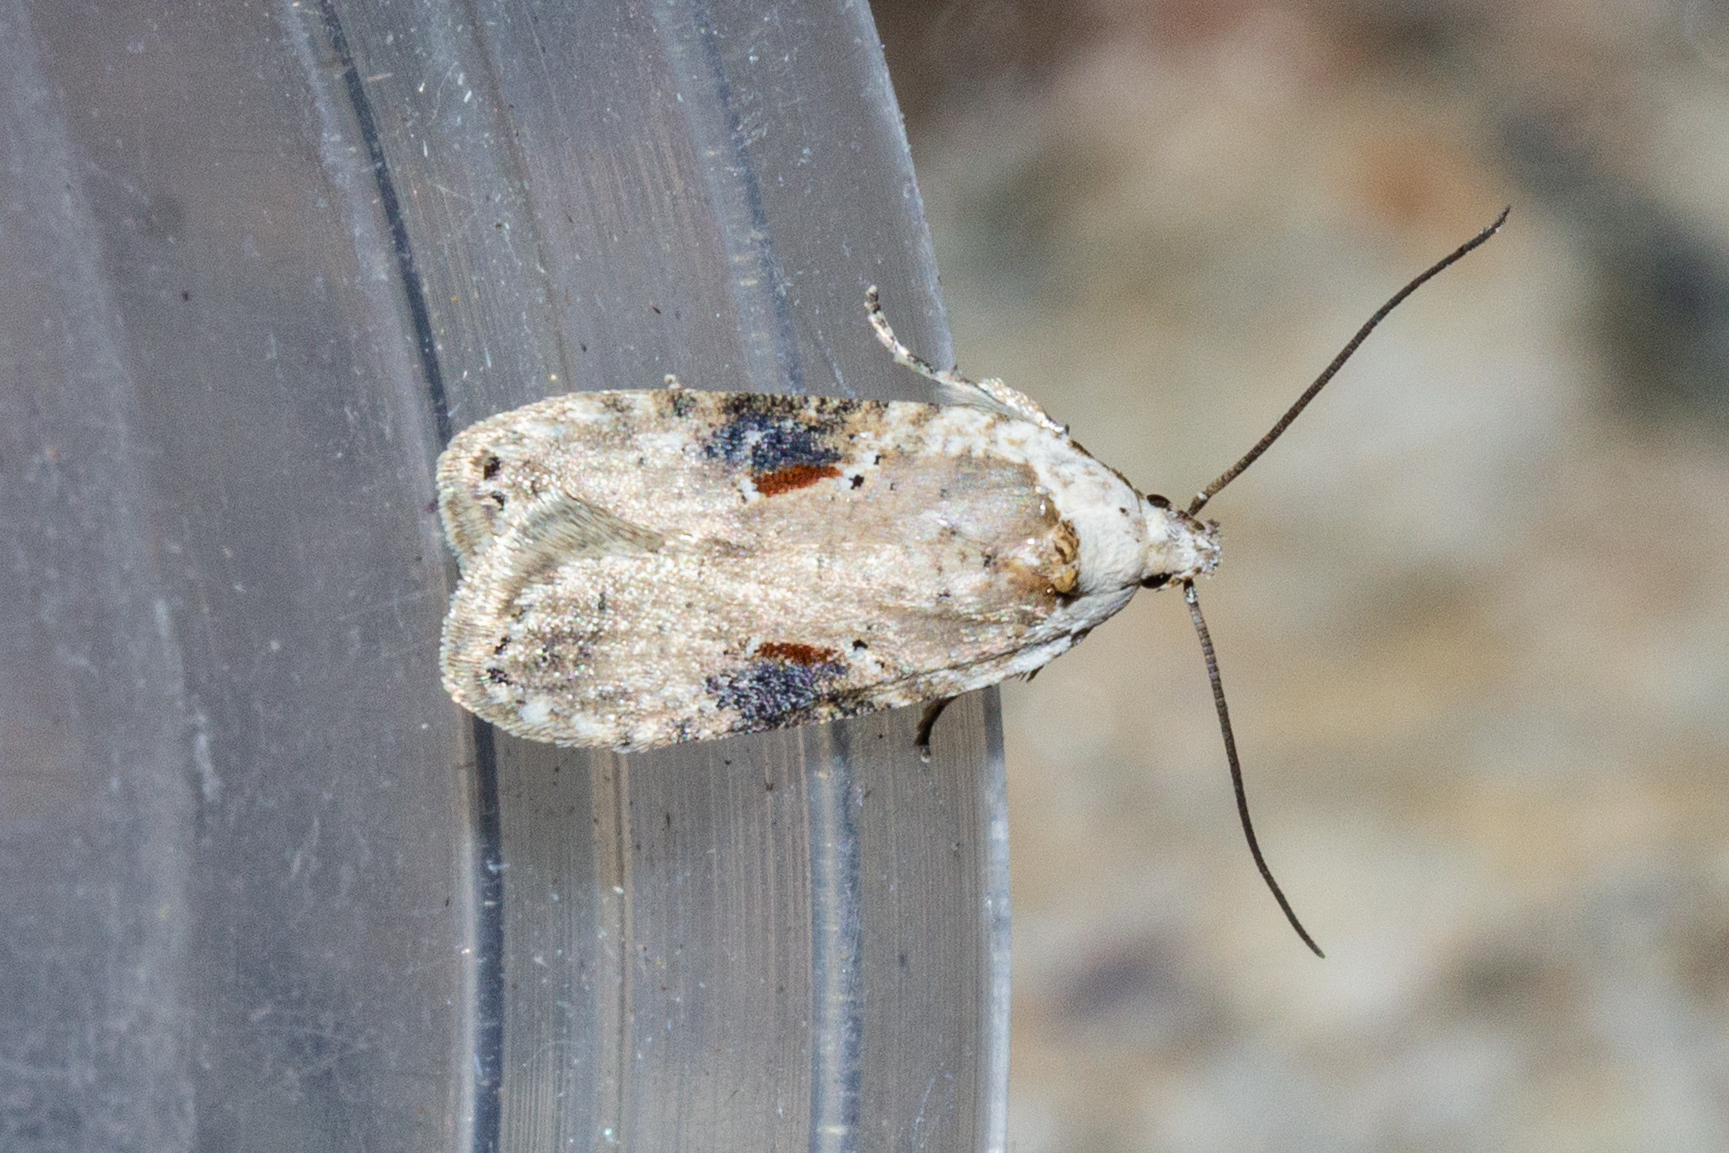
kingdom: Animalia
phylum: Arthropoda
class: Insecta
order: Lepidoptera
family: Depressariidae
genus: Agonopterix
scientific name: Agonopterix alstroemeriana
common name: Moth
